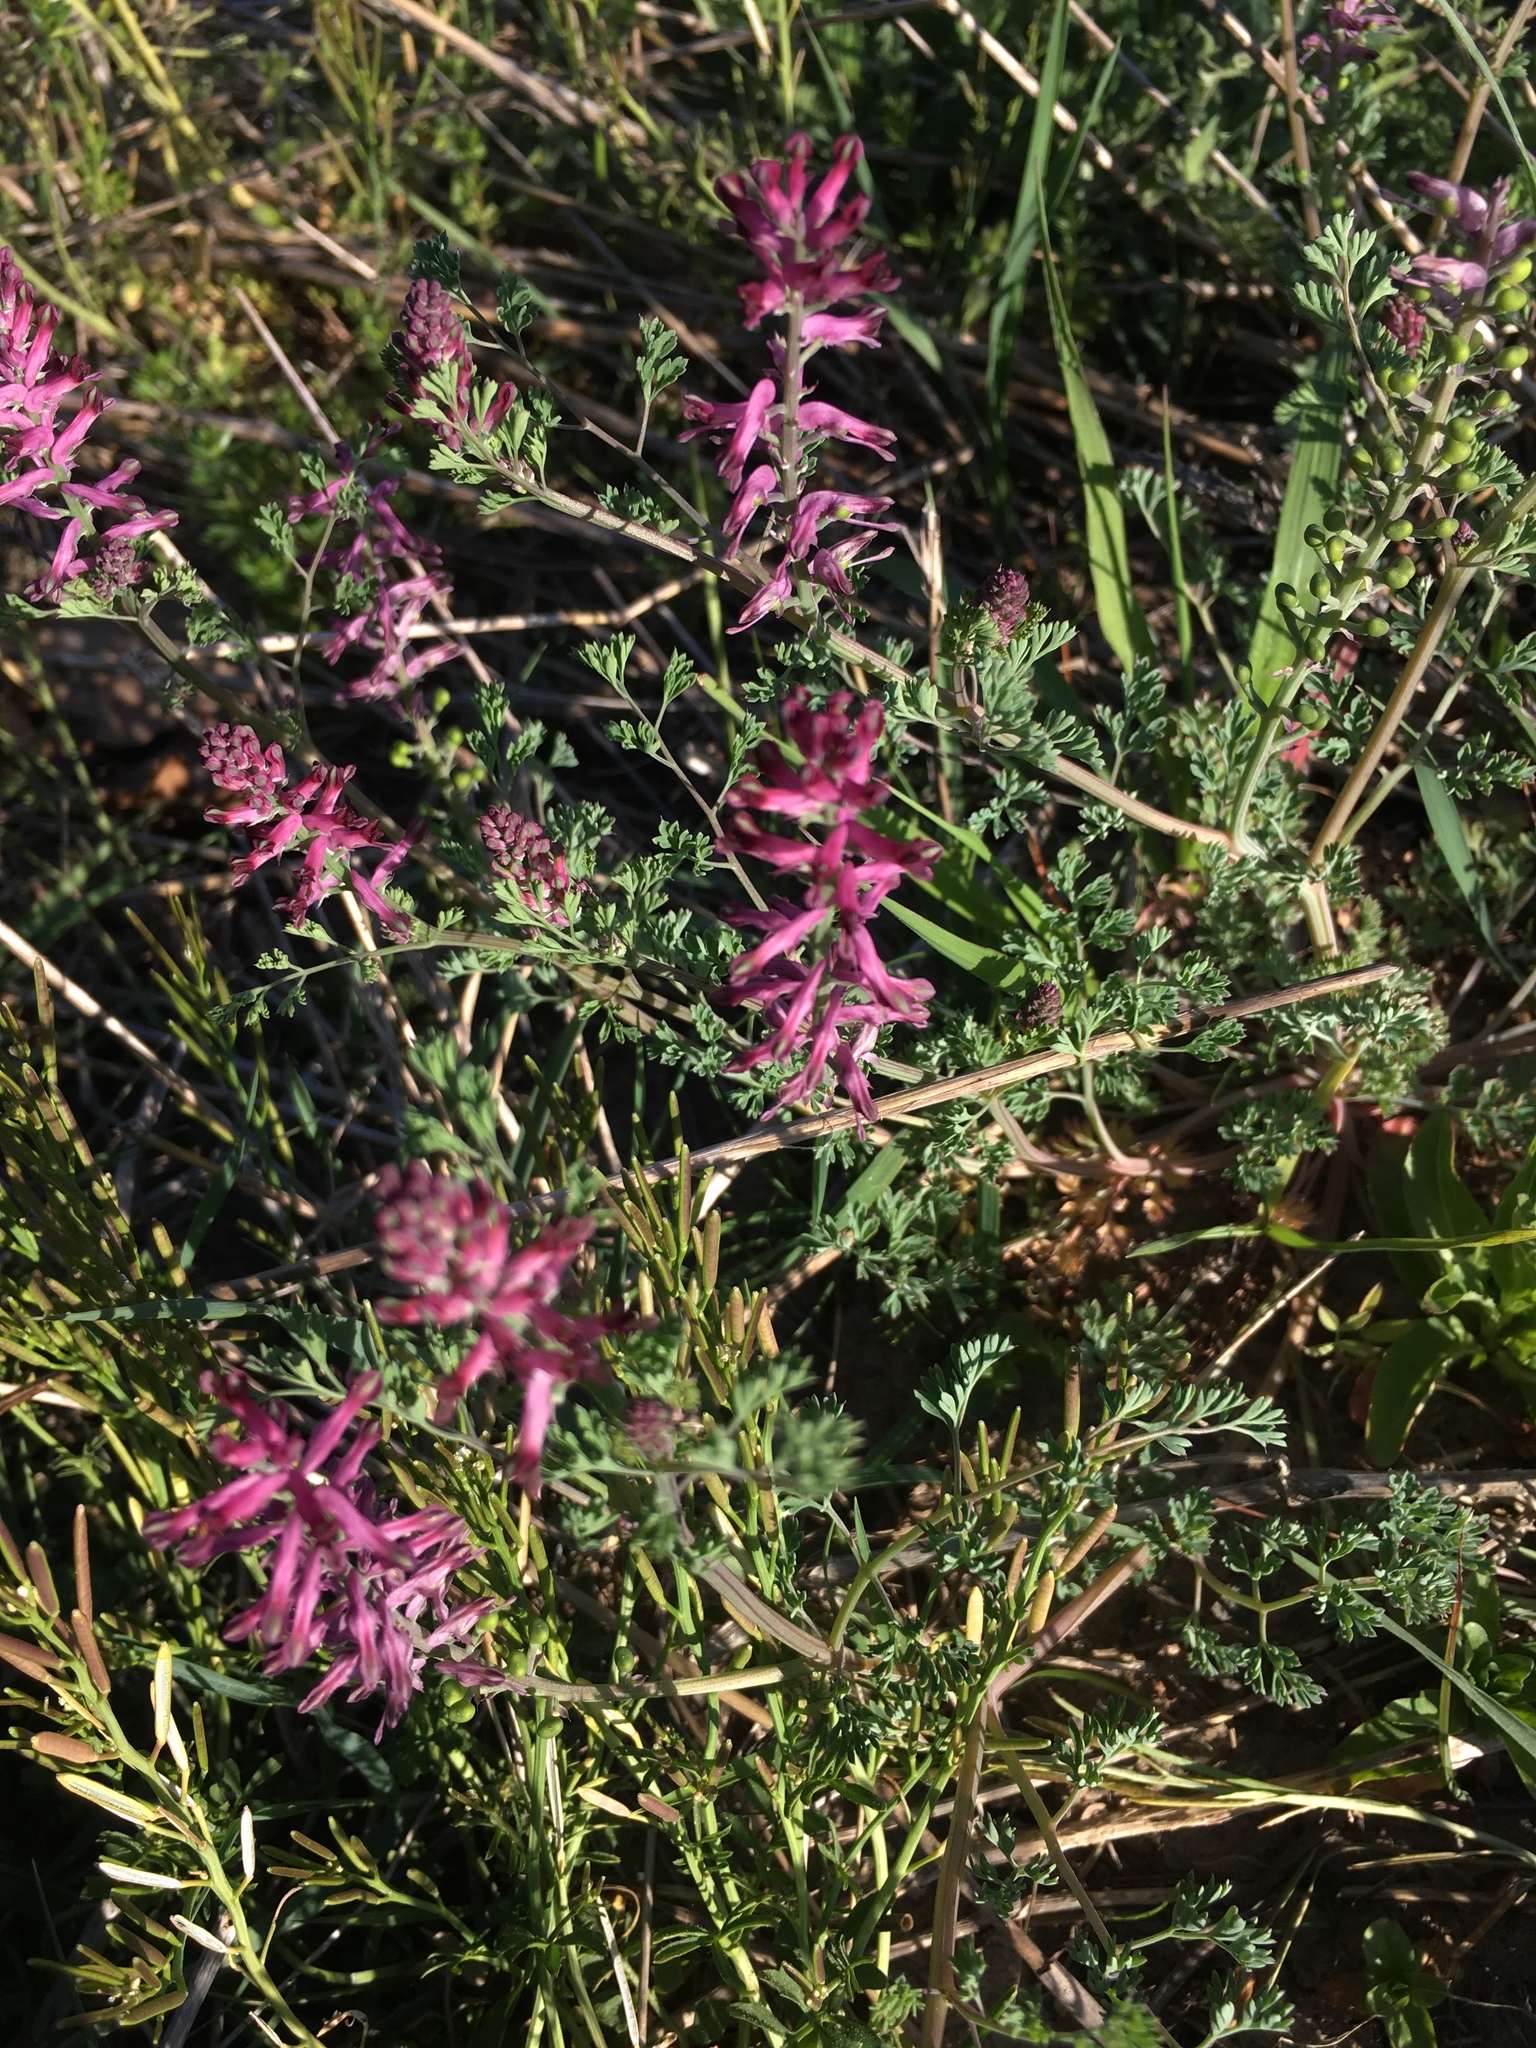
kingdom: Plantae
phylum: Tracheophyta
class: Magnoliopsida
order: Ranunculales
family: Papaveraceae
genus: Fumaria
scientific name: Fumaria officinalis
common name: Common fumitory
